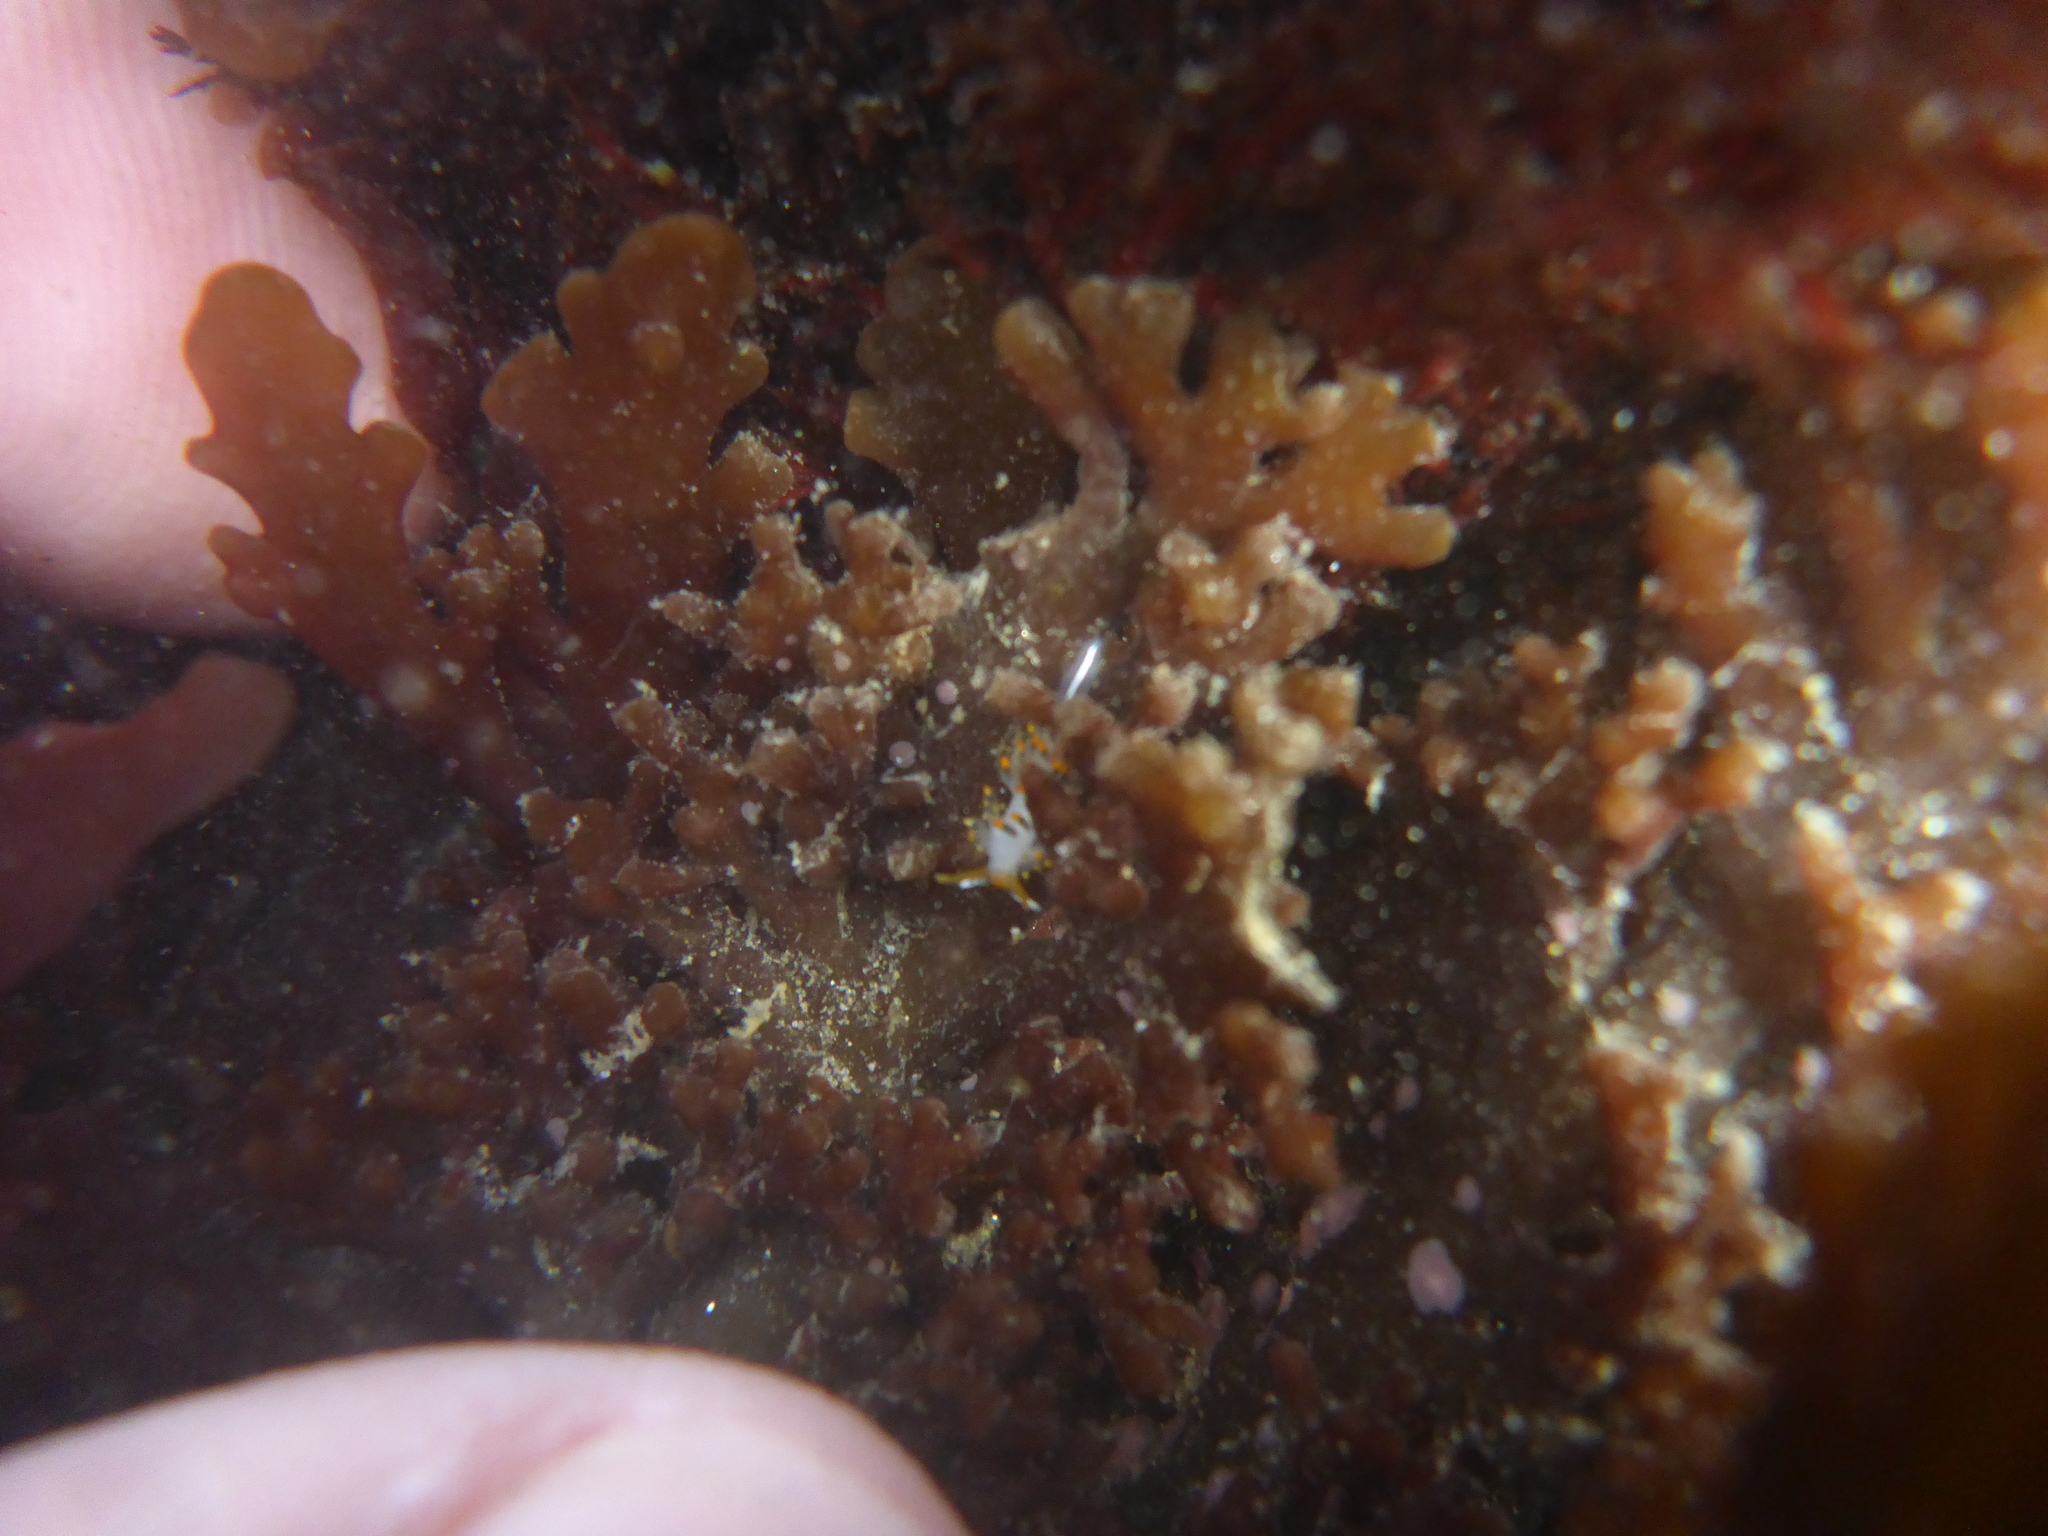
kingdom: Animalia
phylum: Mollusca
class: Gastropoda
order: Nudibranchia
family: Trinchesiidae
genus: Diaphoreolis
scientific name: Diaphoreolis lagunae
